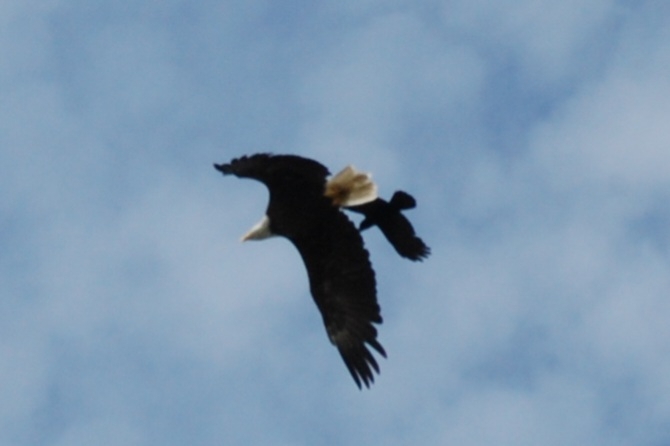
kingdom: Animalia
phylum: Chordata
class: Aves
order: Accipitriformes
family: Accipitridae
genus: Haliaeetus
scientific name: Haliaeetus leucocephalus
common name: Bald eagle
